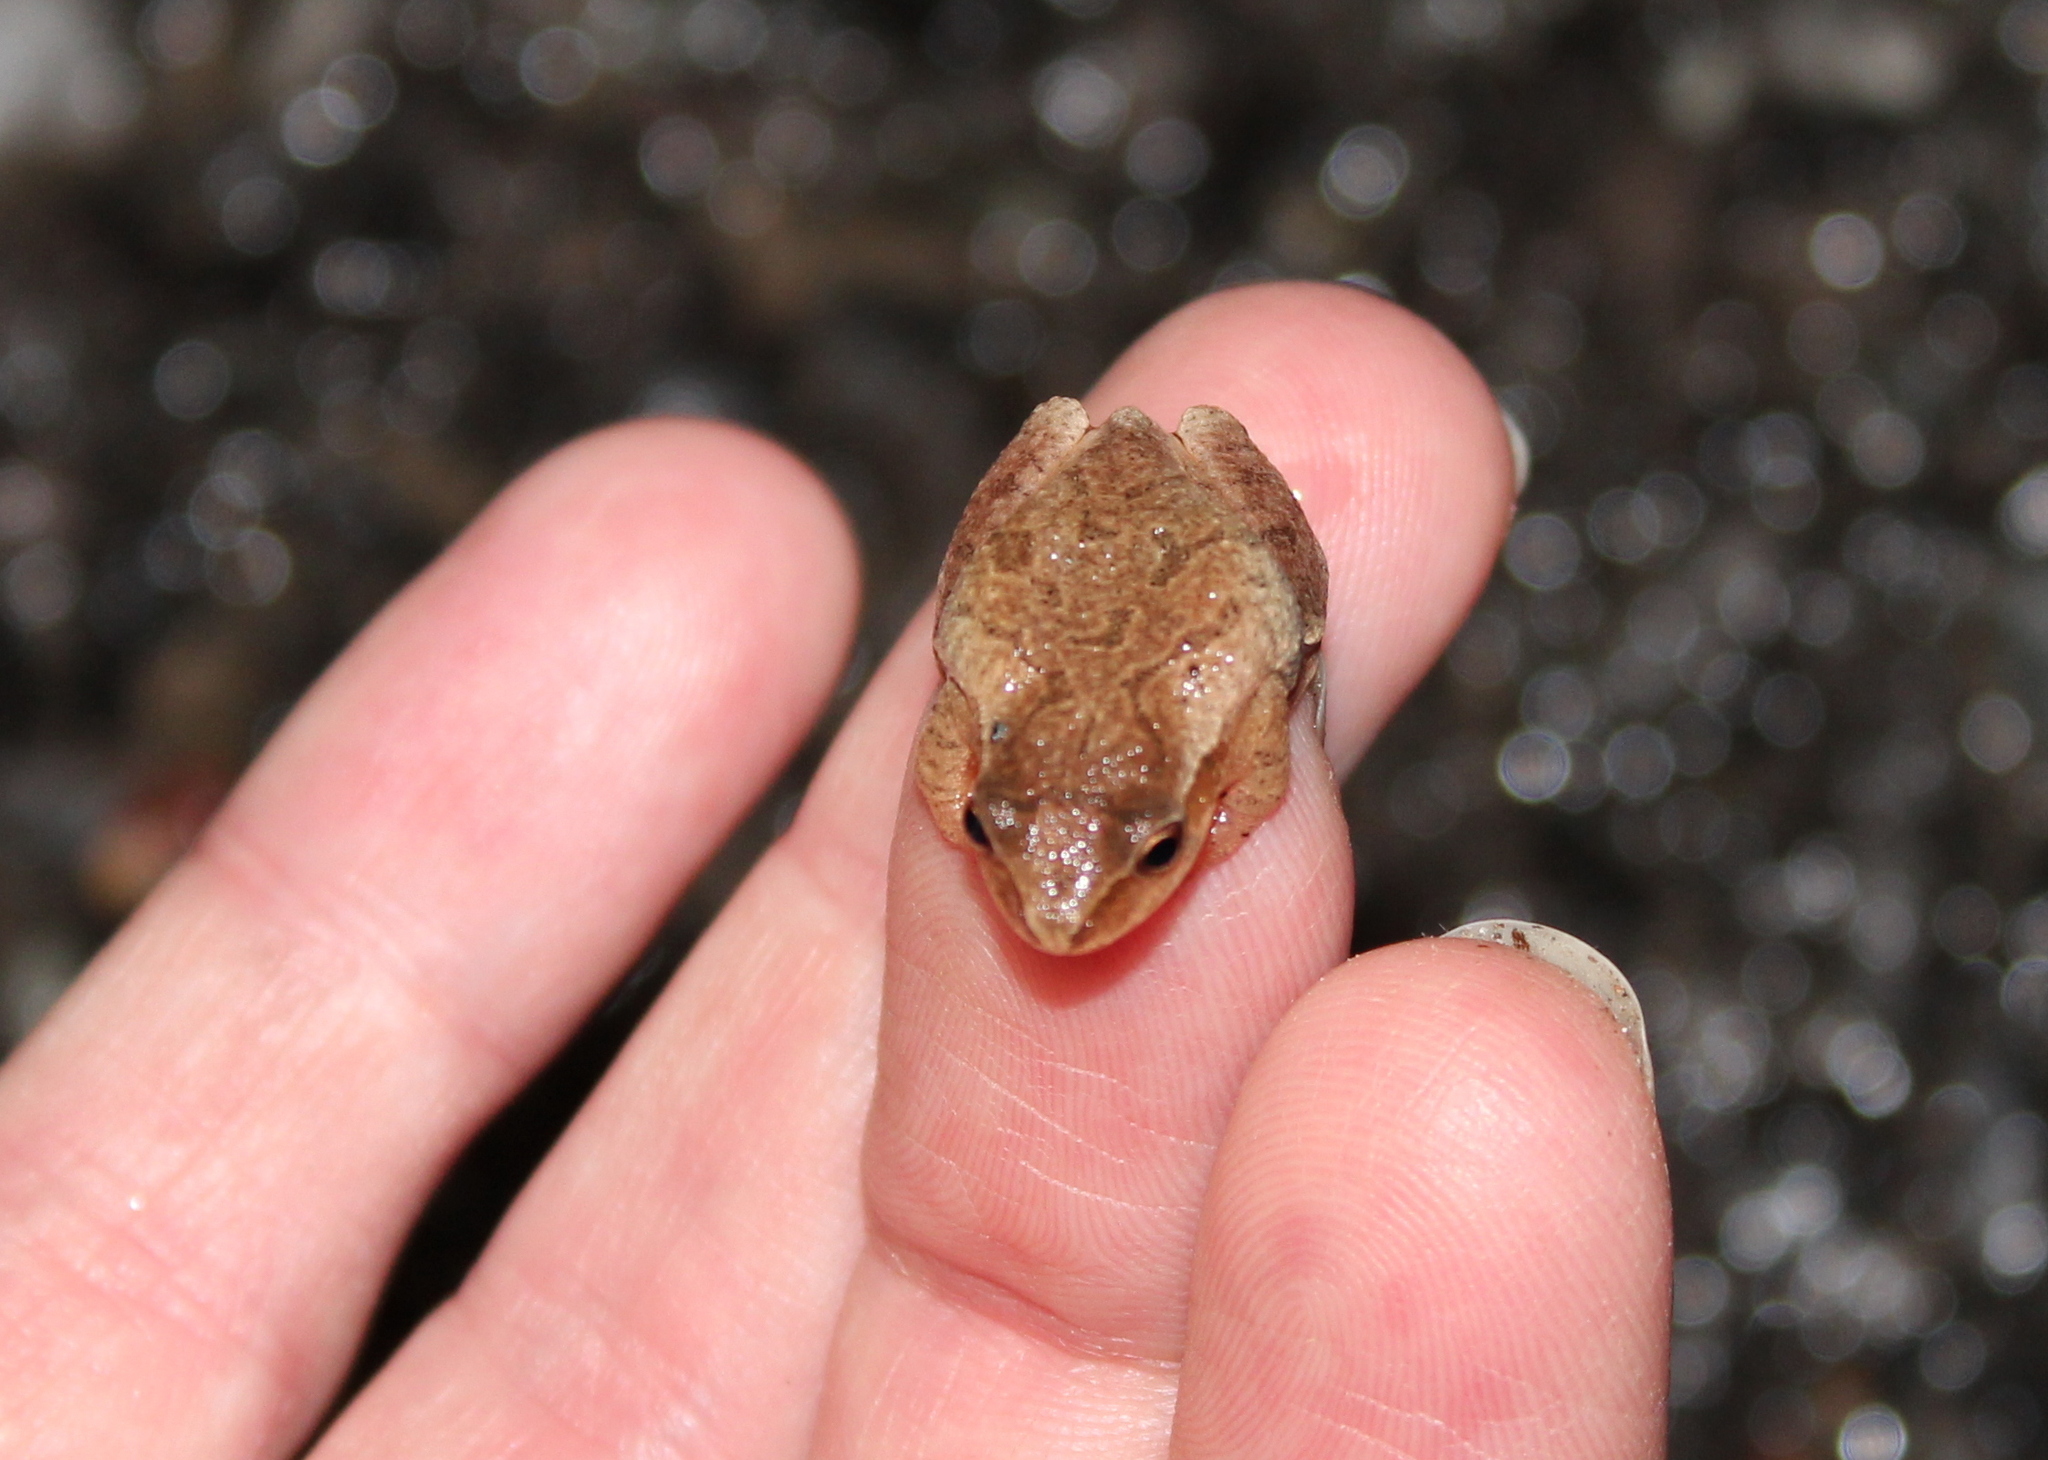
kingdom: Animalia
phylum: Chordata
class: Amphibia
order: Anura
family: Hylidae
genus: Pseudacris
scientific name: Pseudacris crucifer
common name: Spring peeper
